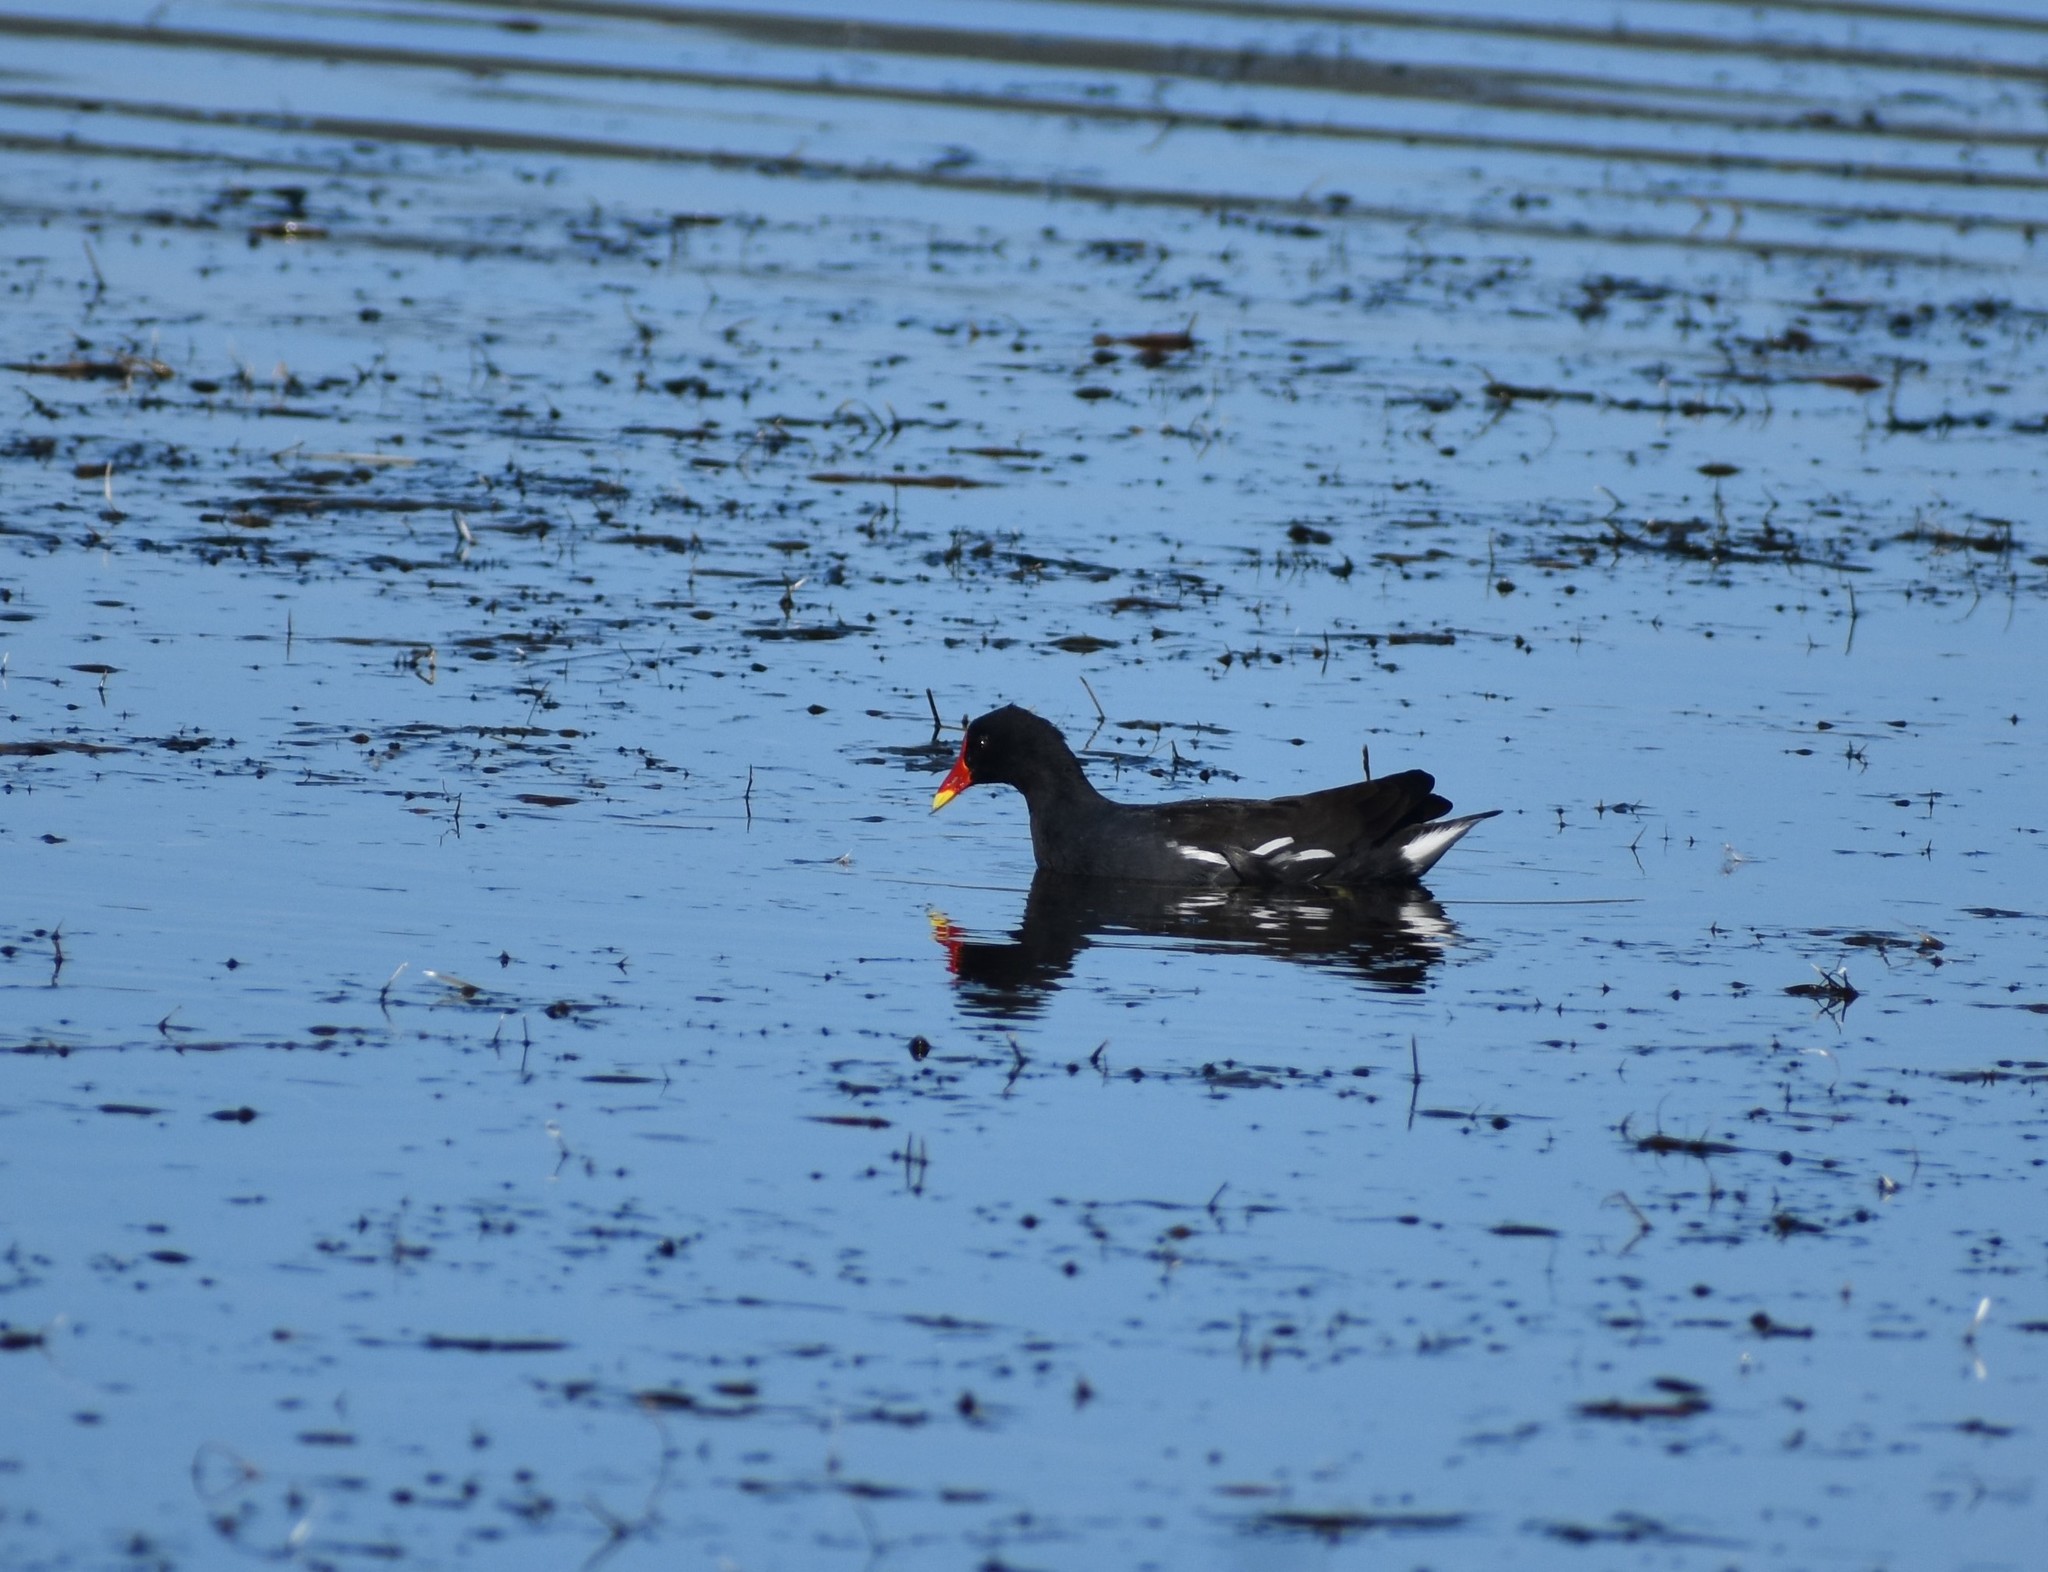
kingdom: Animalia
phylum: Chordata
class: Aves
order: Gruiformes
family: Rallidae
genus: Gallinula
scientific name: Gallinula chloropus
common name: Common moorhen
